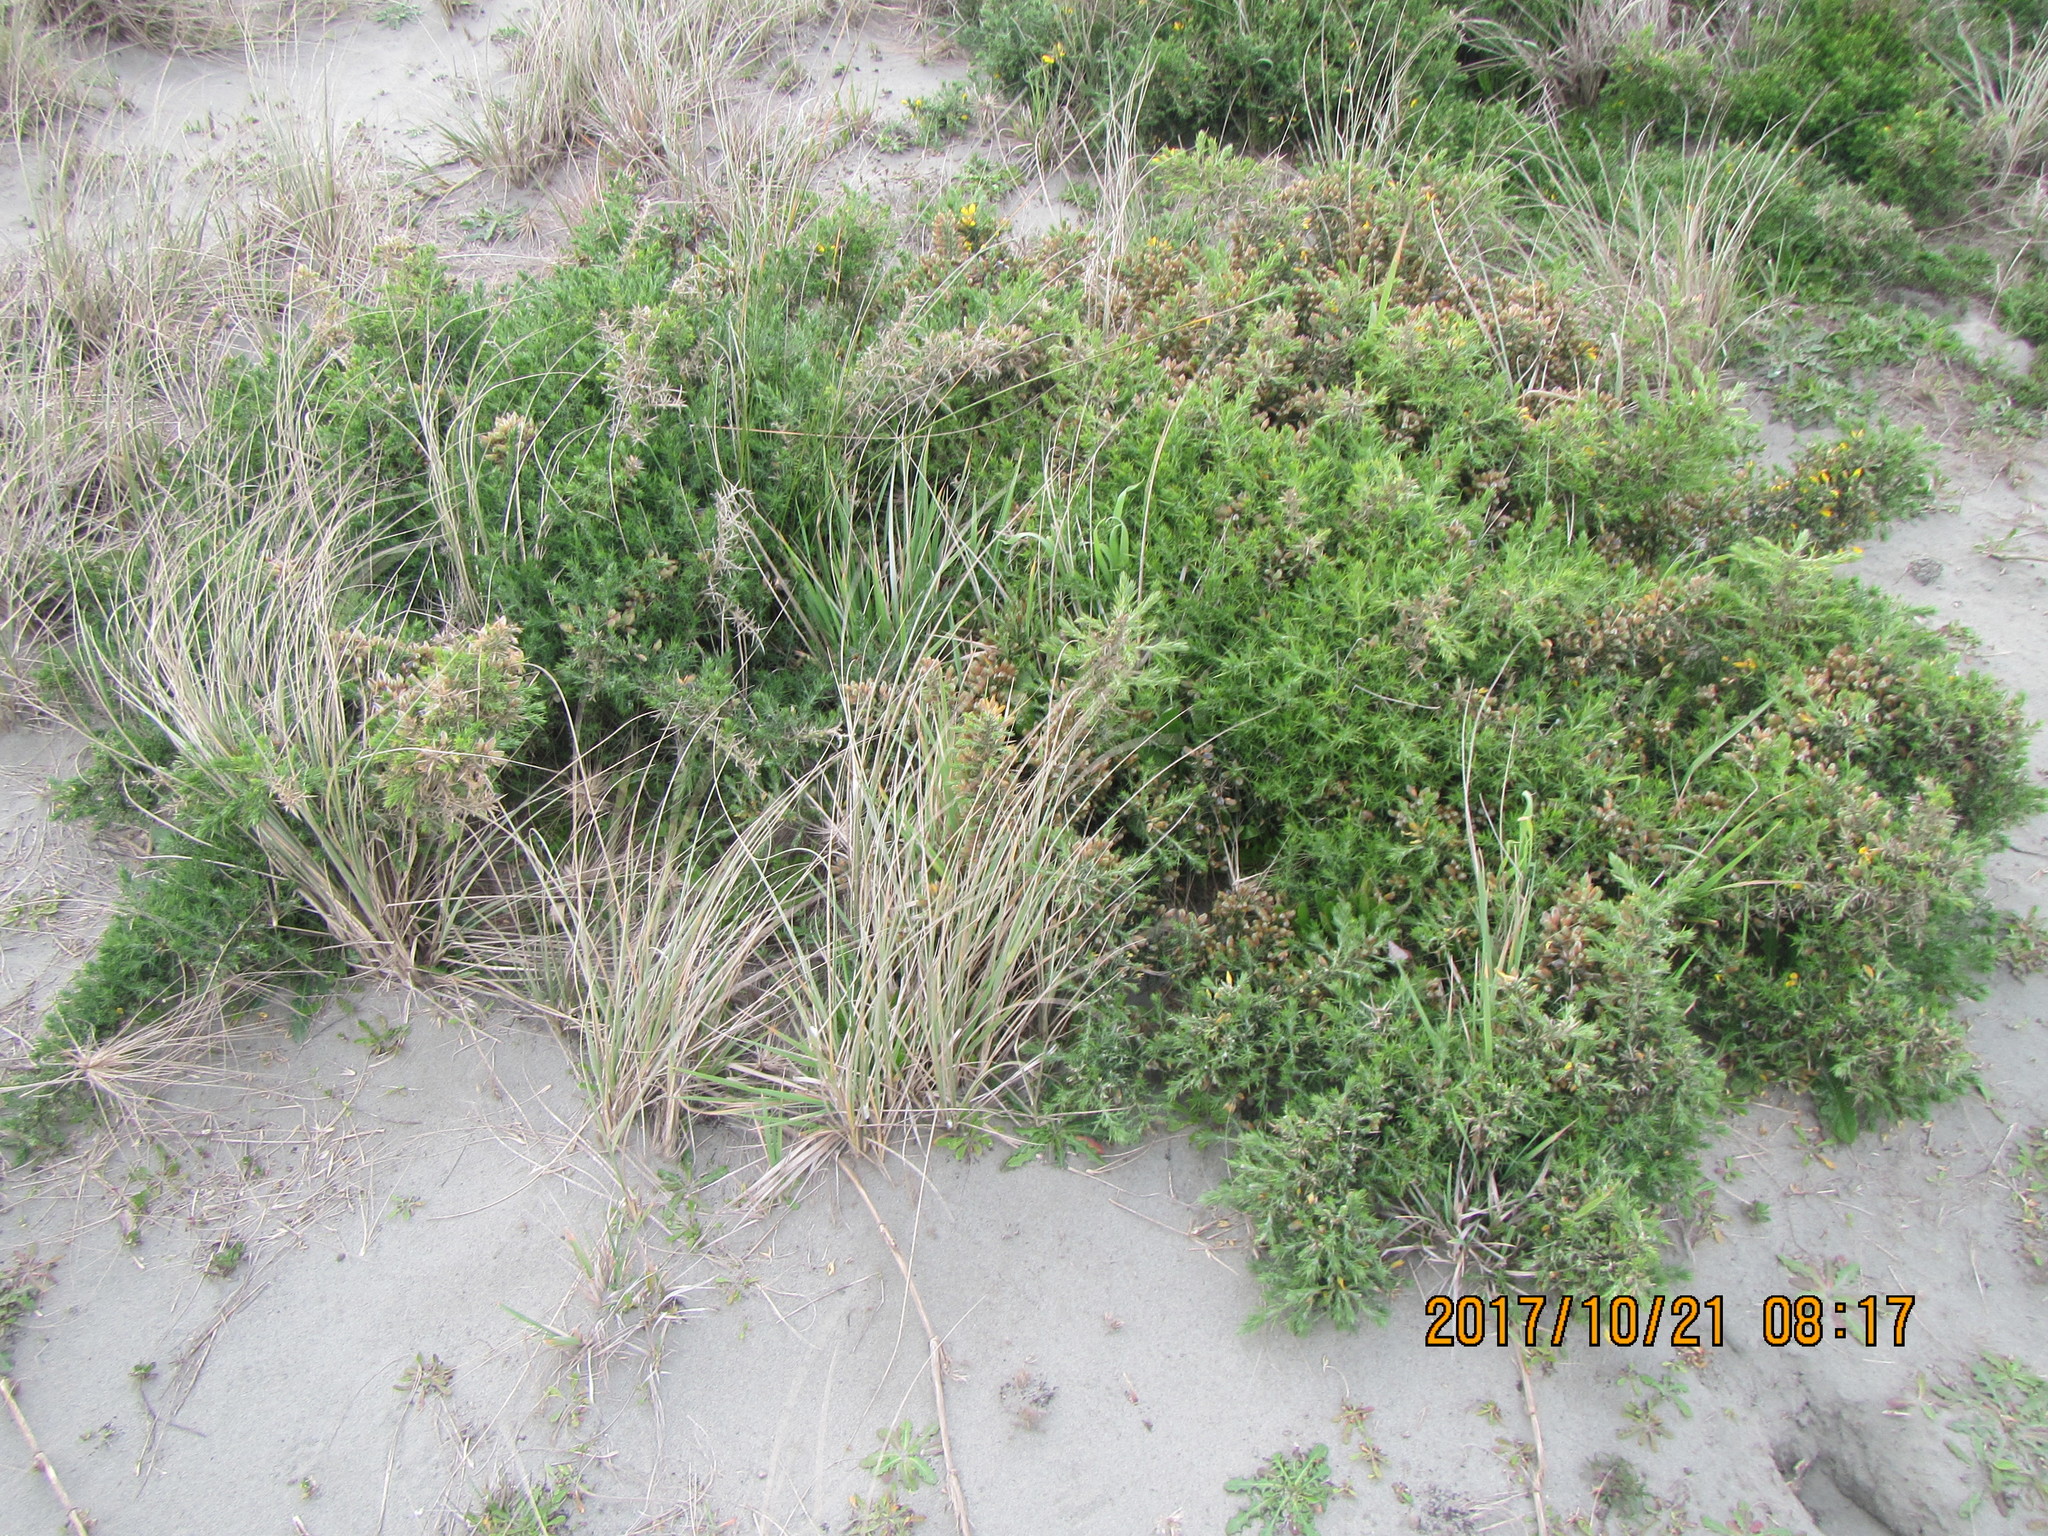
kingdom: Plantae
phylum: Tracheophyta
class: Magnoliopsida
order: Fabales
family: Fabaceae
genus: Ulex
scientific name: Ulex europaeus
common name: Common gorse
